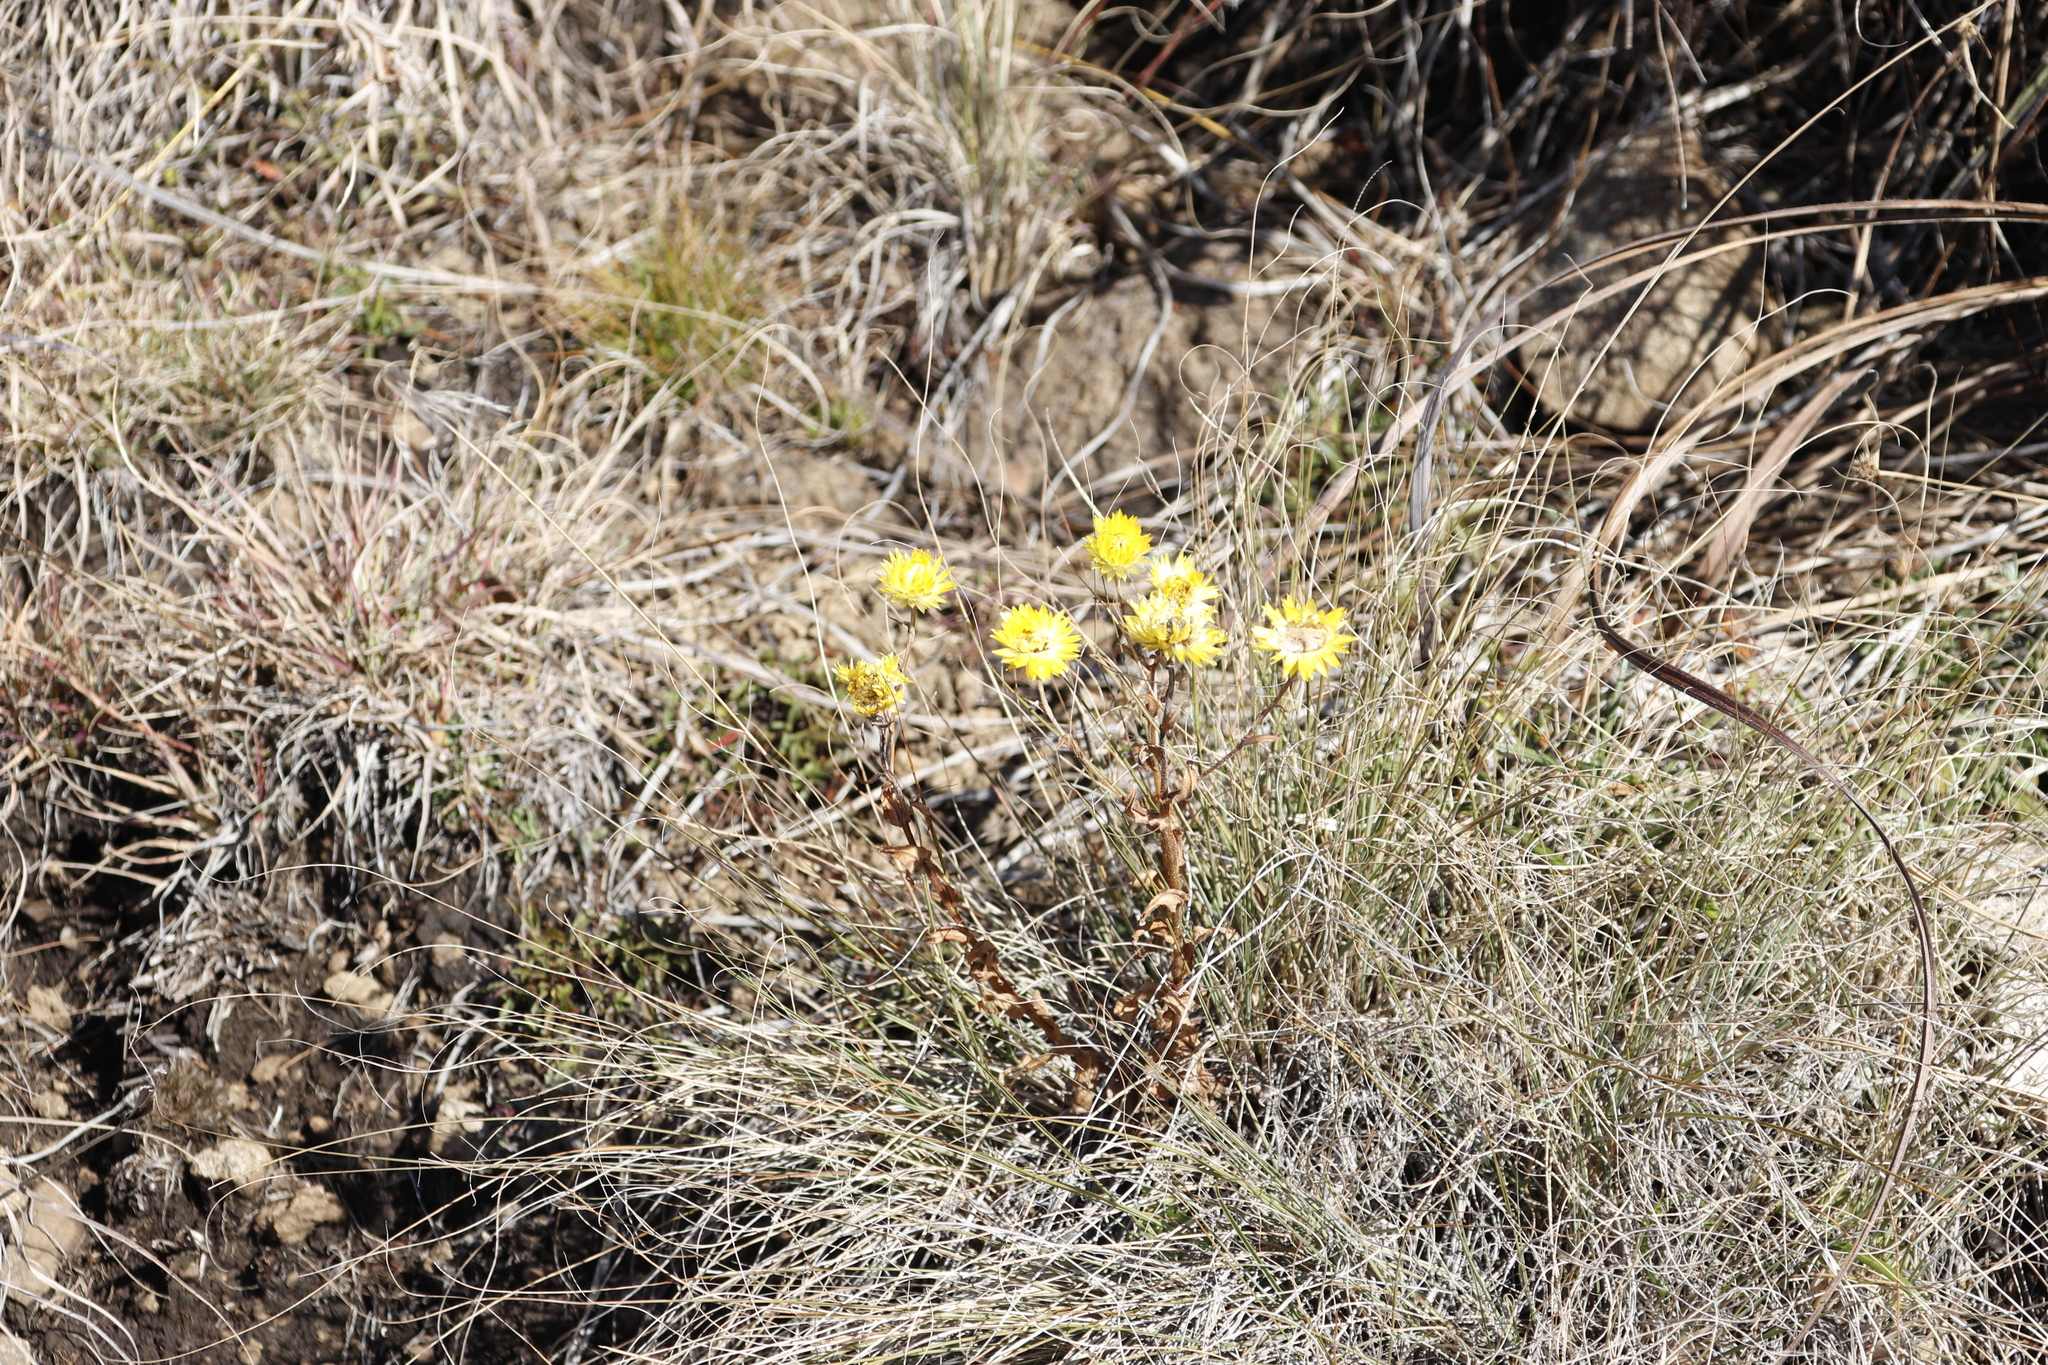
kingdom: Plantae
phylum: Tracheophyta
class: Magnoliopsida
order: Asterales
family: Asteraceae
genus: Helichrysum
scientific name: Helichrysum cooperi
